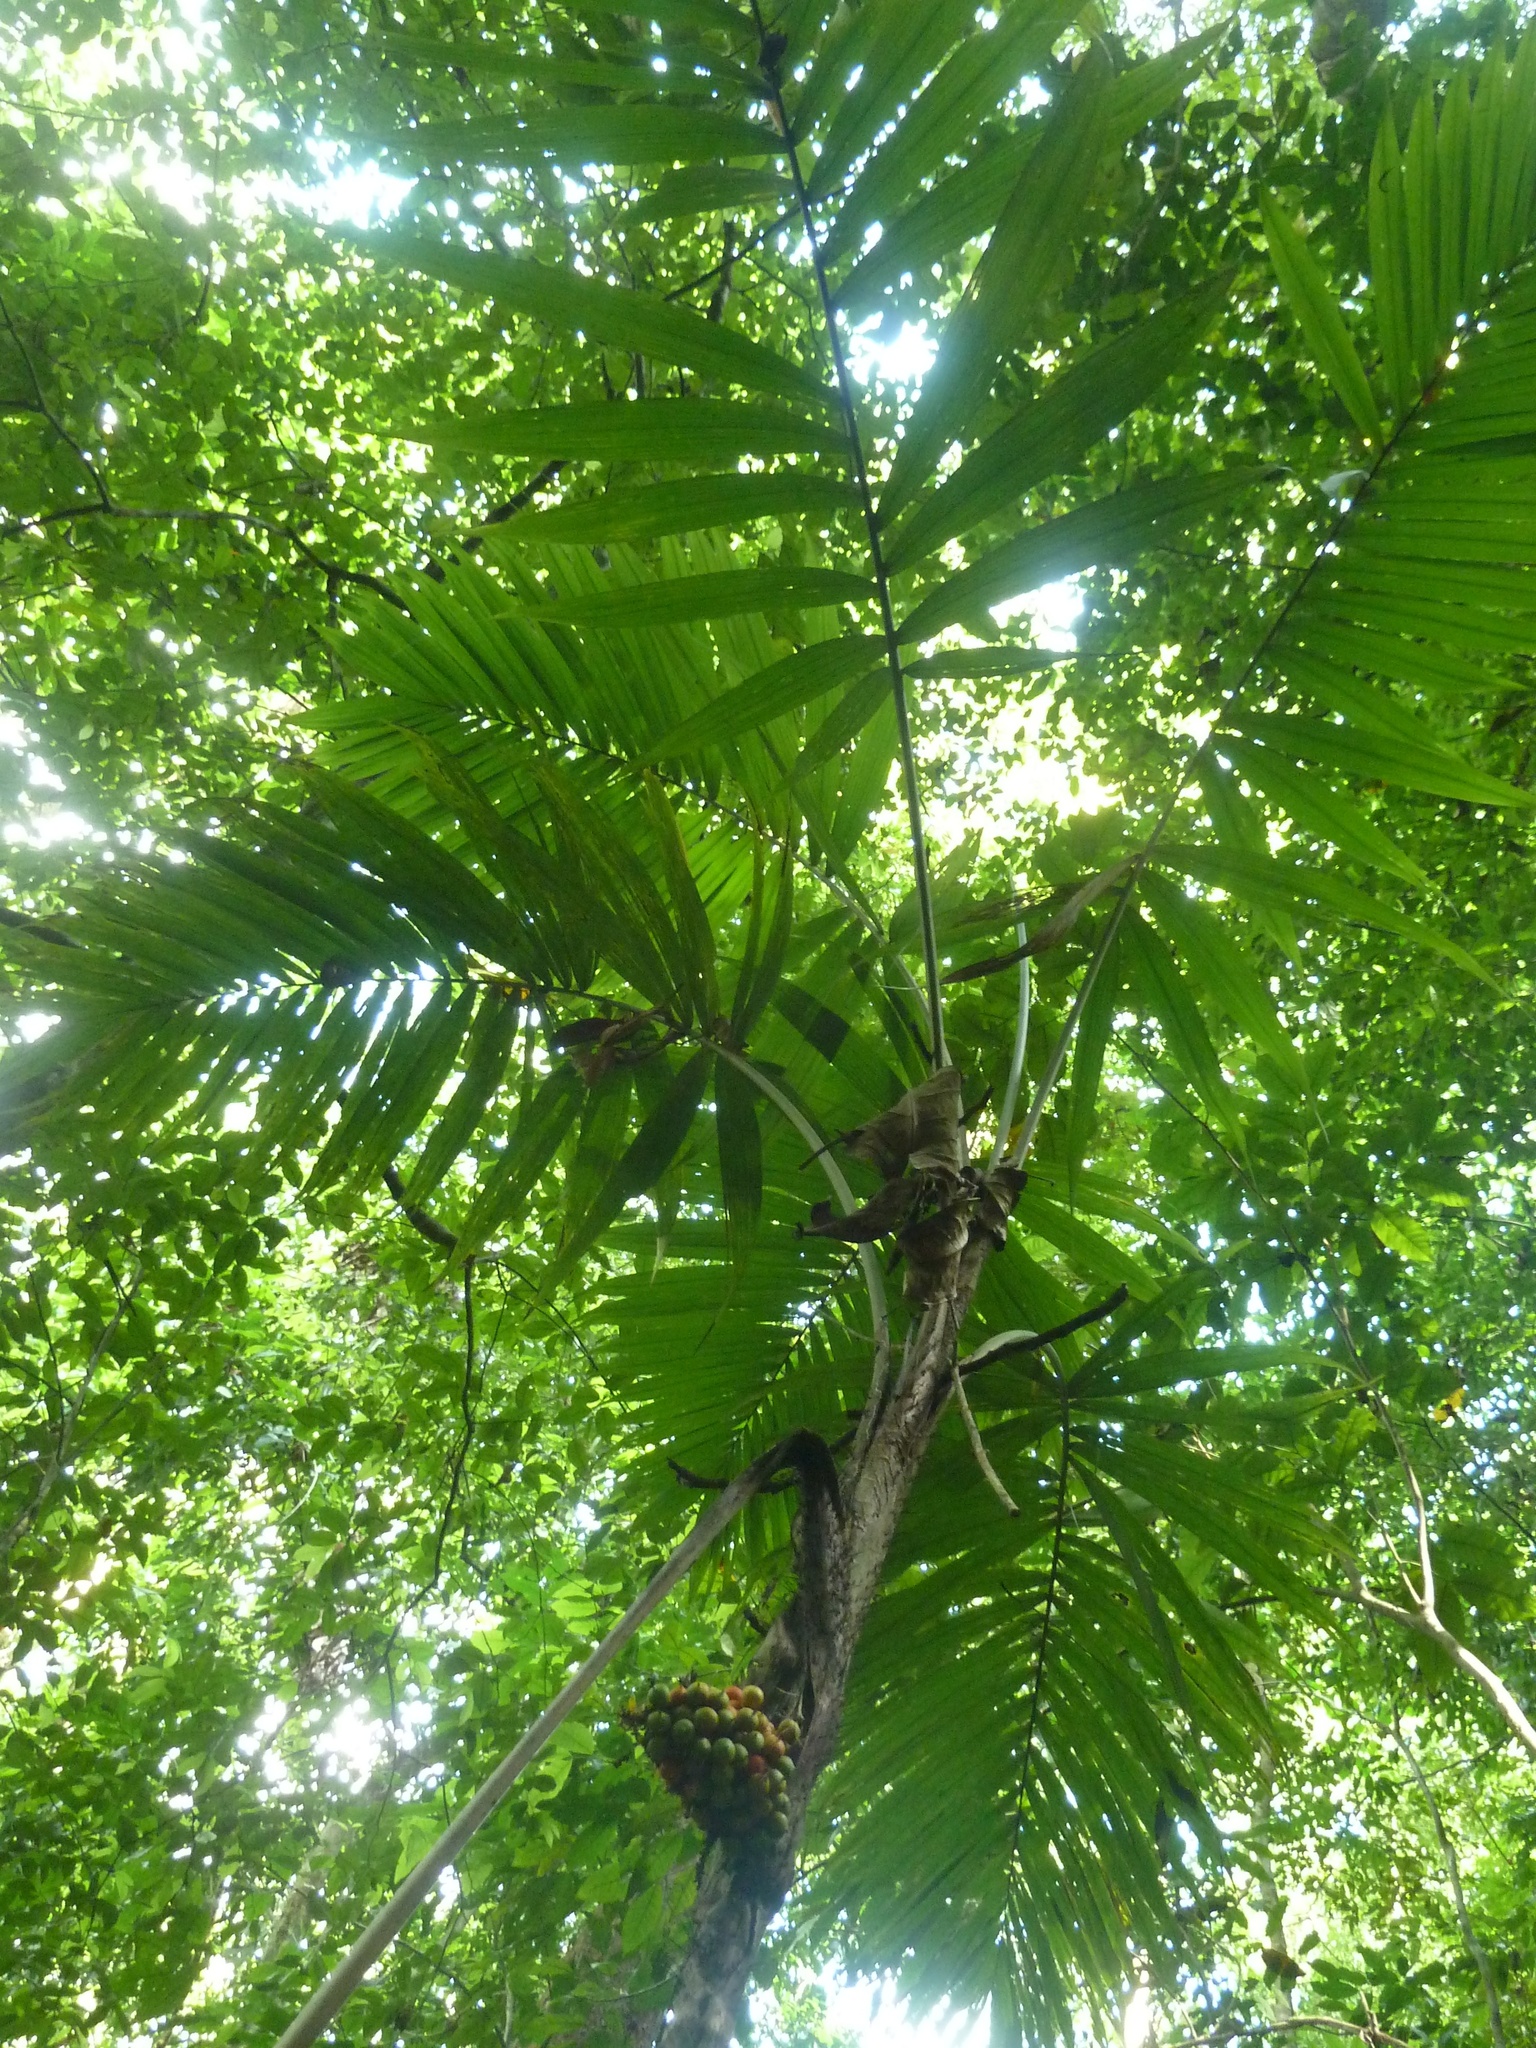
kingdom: Plantae
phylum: Tracheophyta
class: Liliopsida
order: Arecales
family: Arecaceae
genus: Bactris
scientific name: Bactris glandulosa
